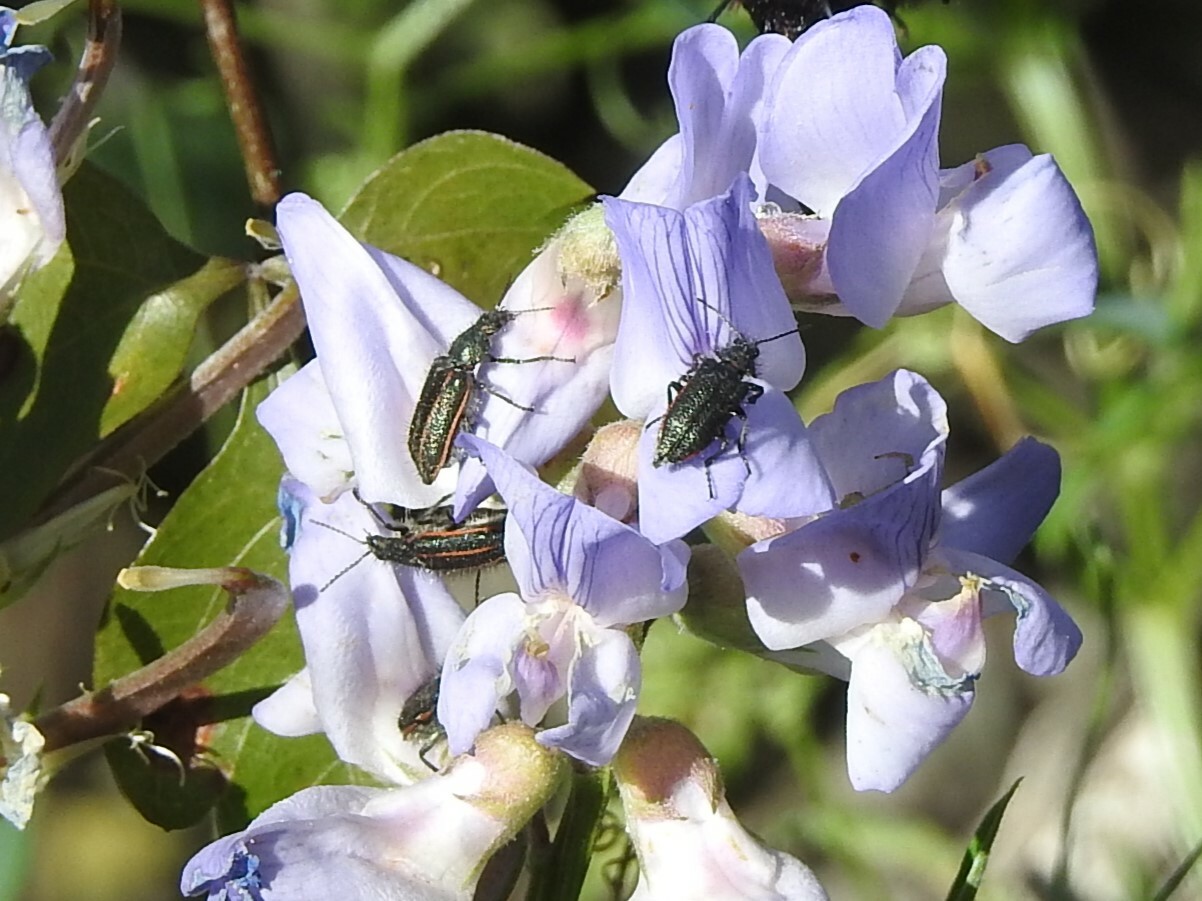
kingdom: Animalia
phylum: Arthropoda
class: Insecta
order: Coleoptera
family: Melyridae
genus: Astylus
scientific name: Astylus
